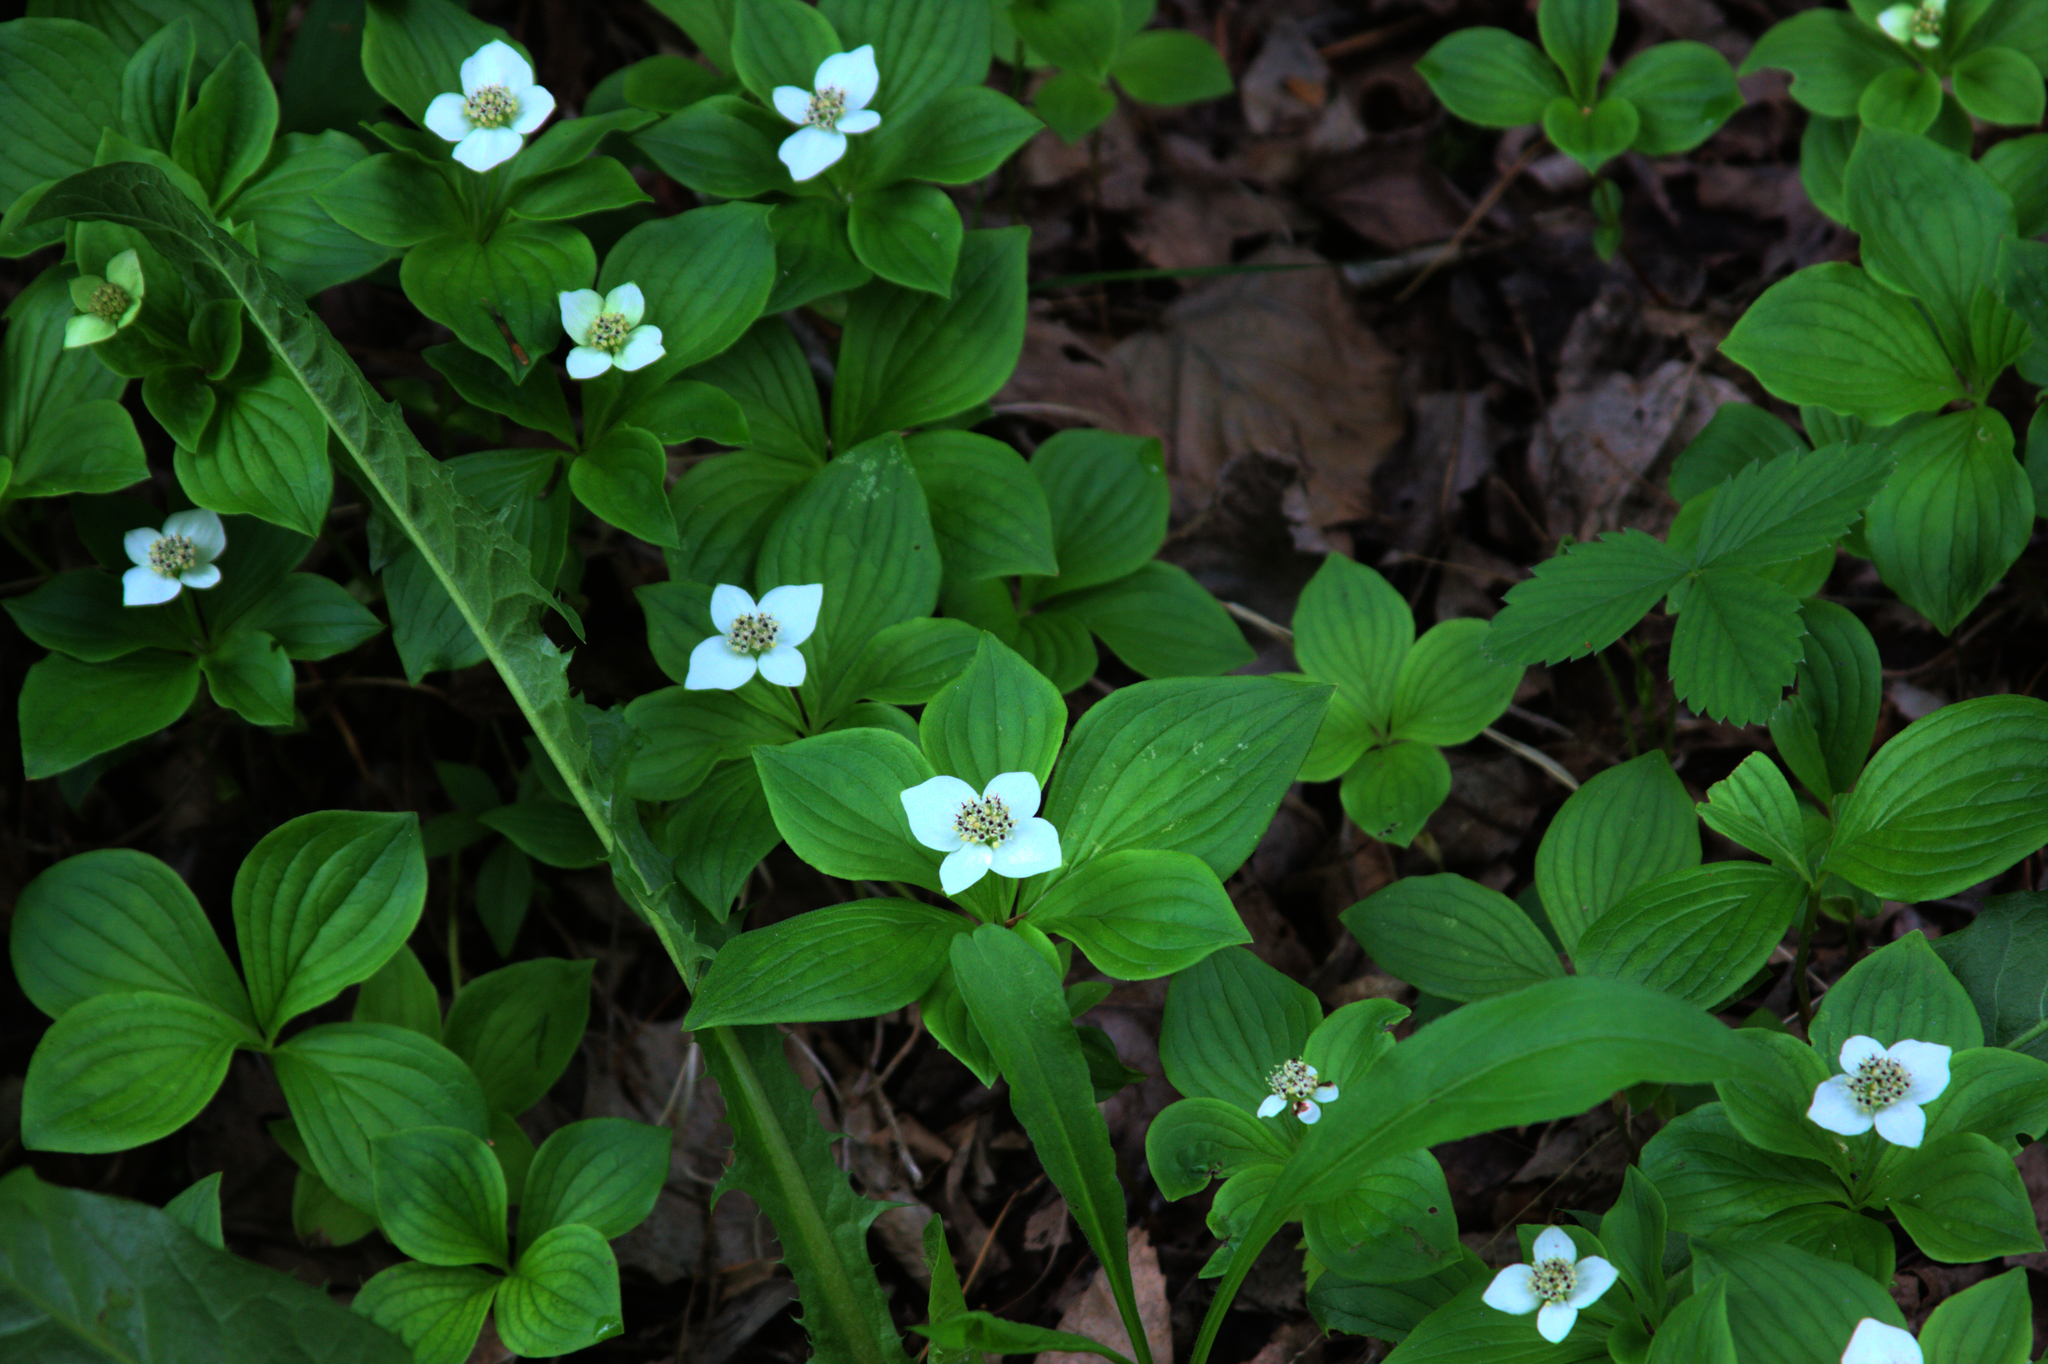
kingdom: Plantae
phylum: Tracheophyta
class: Magnoliopsida
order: Cornales
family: Cornaceae
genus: Cornus
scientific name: Cornus canadensis
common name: Creeping dogwood
